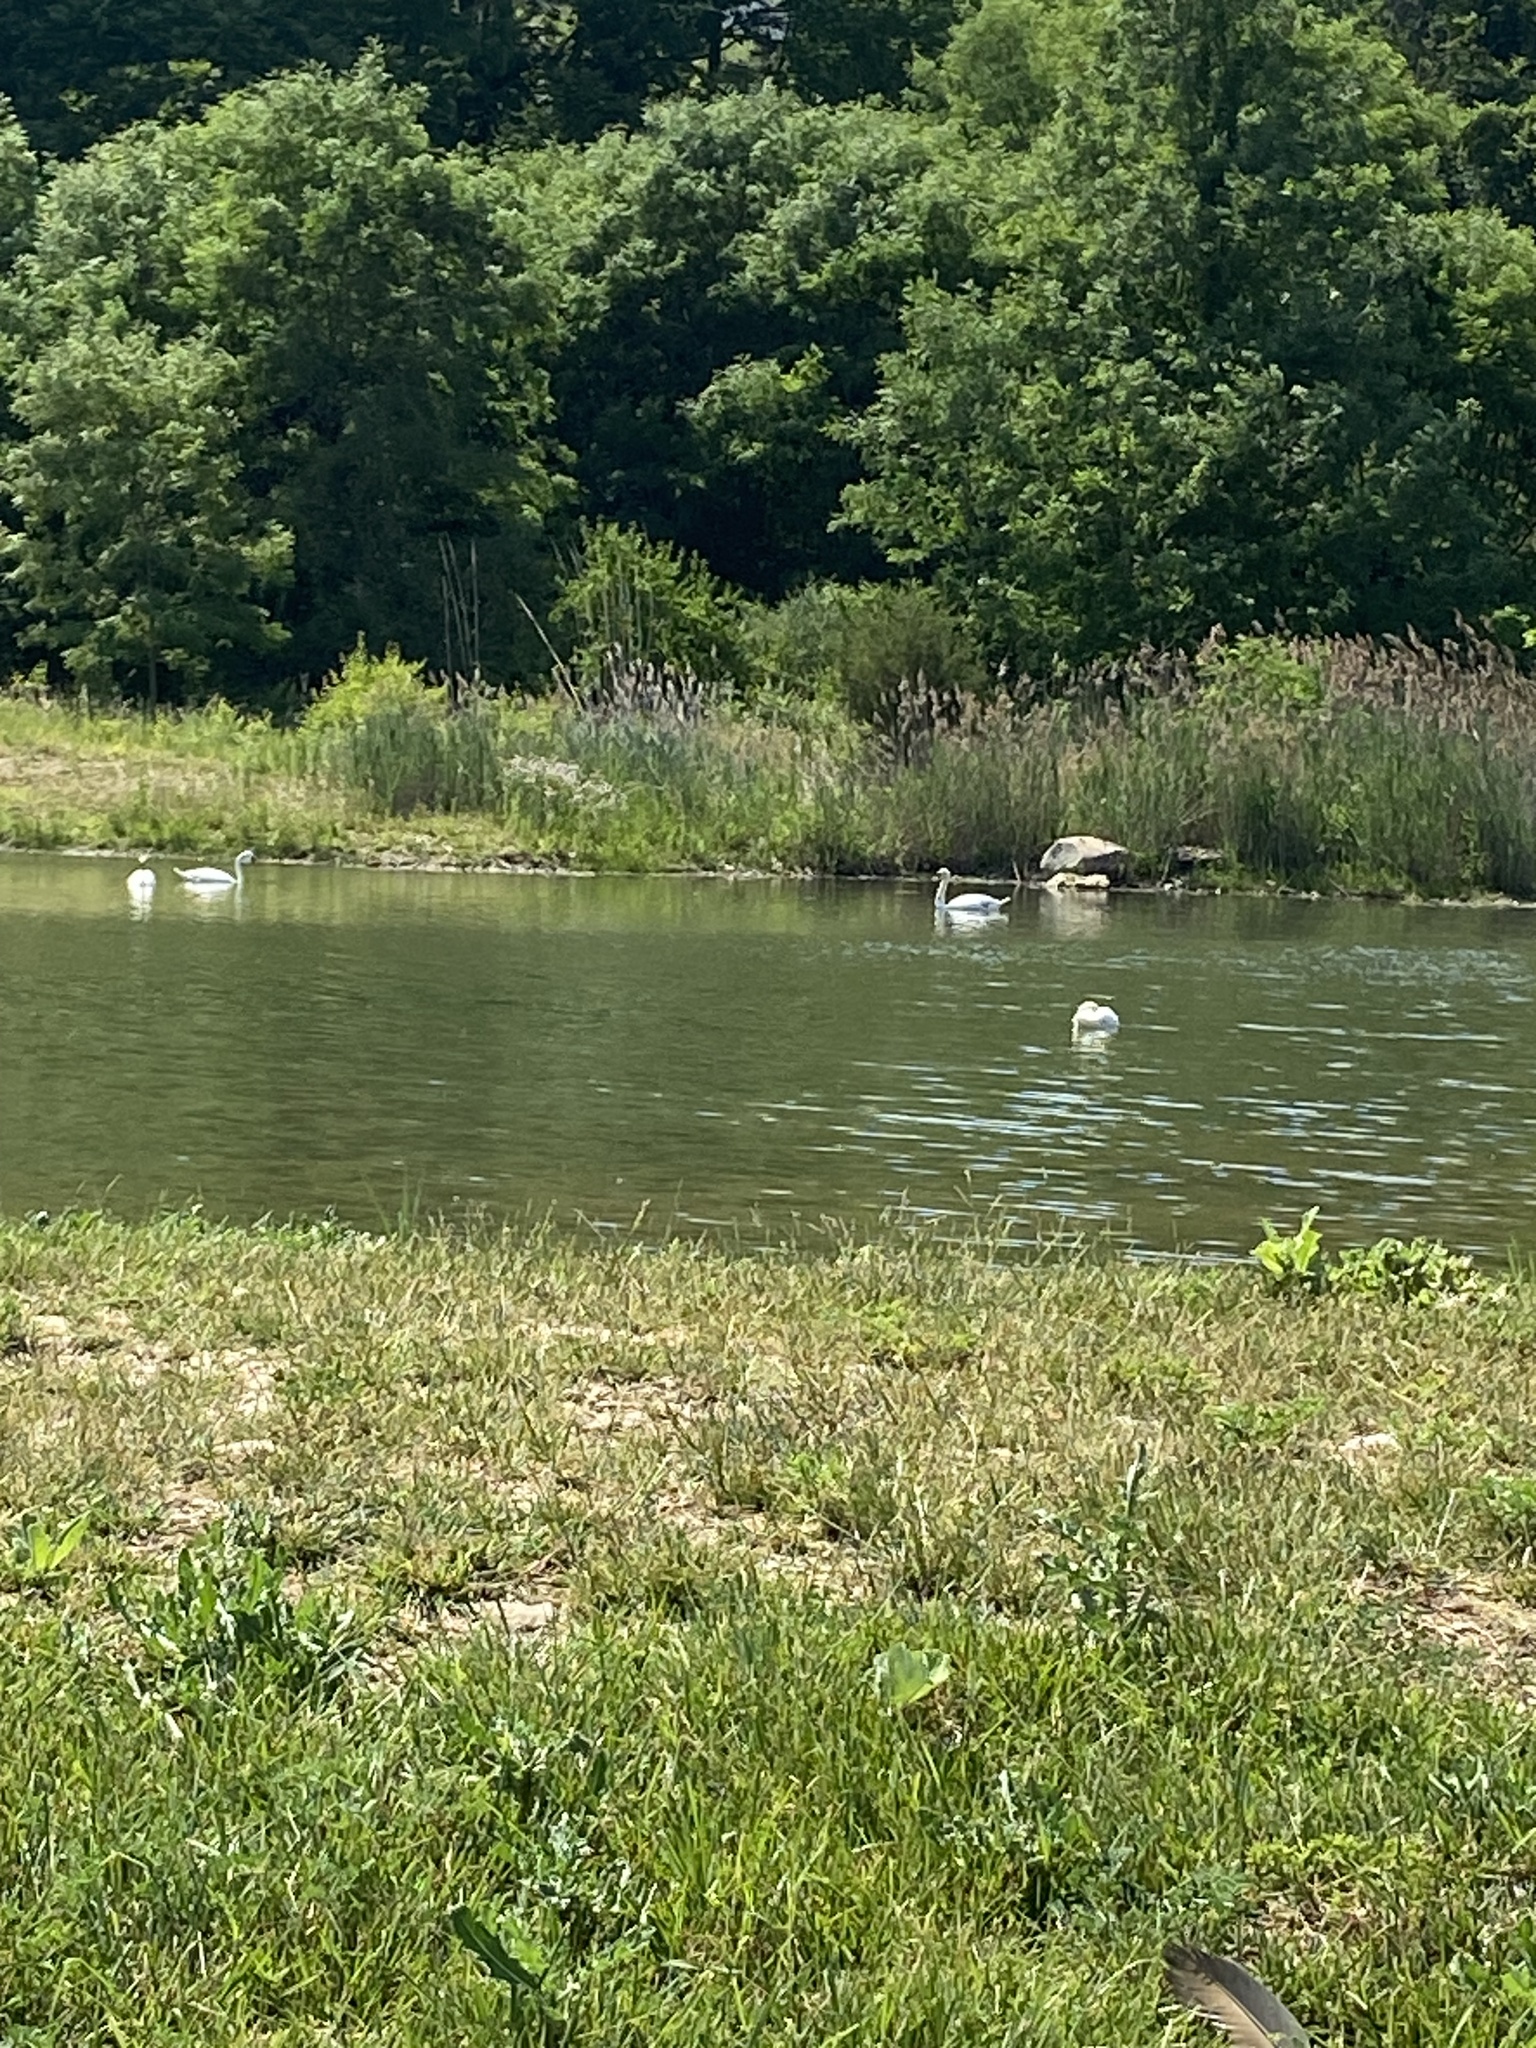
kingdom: Animalia
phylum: Chordata
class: Aves
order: Anseriformes
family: Anatidae
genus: Cygnus
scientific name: Cygnus olor
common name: Mute swan
